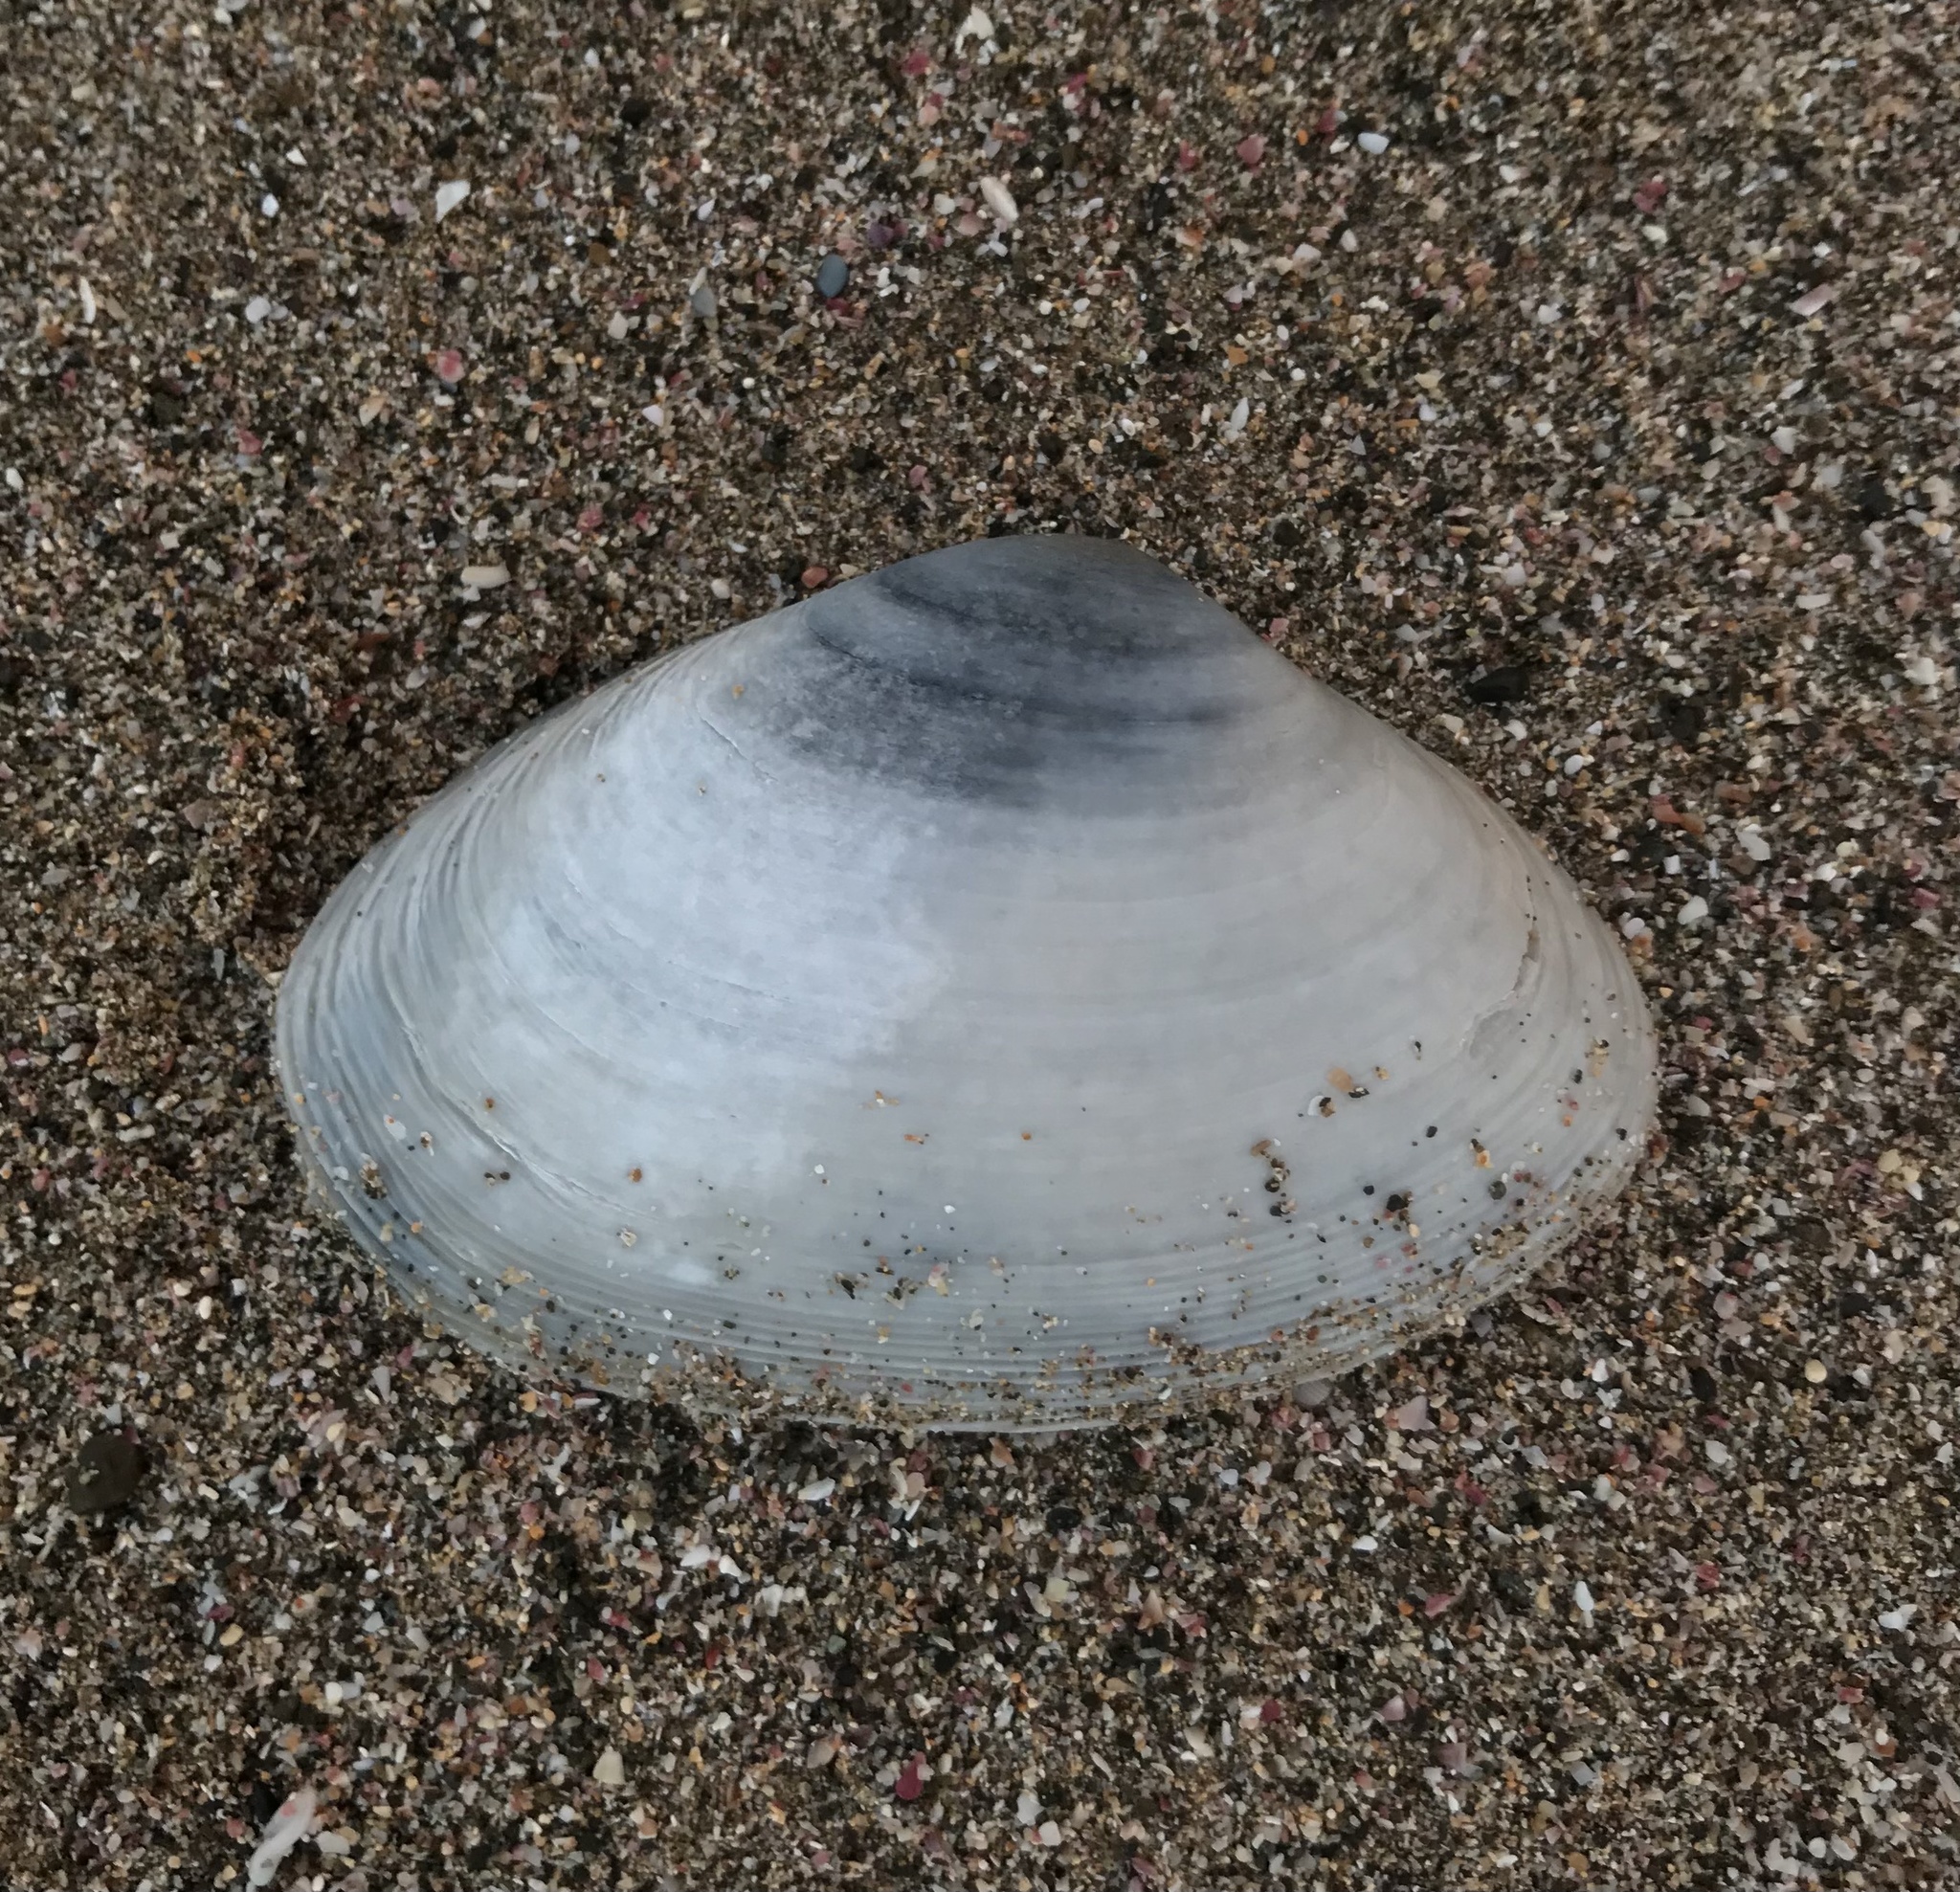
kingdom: Animalia
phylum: Mollusca
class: Bivalvia
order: Venerida
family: Mactridae
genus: Oxyperas
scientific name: Oxyperas elongatum
